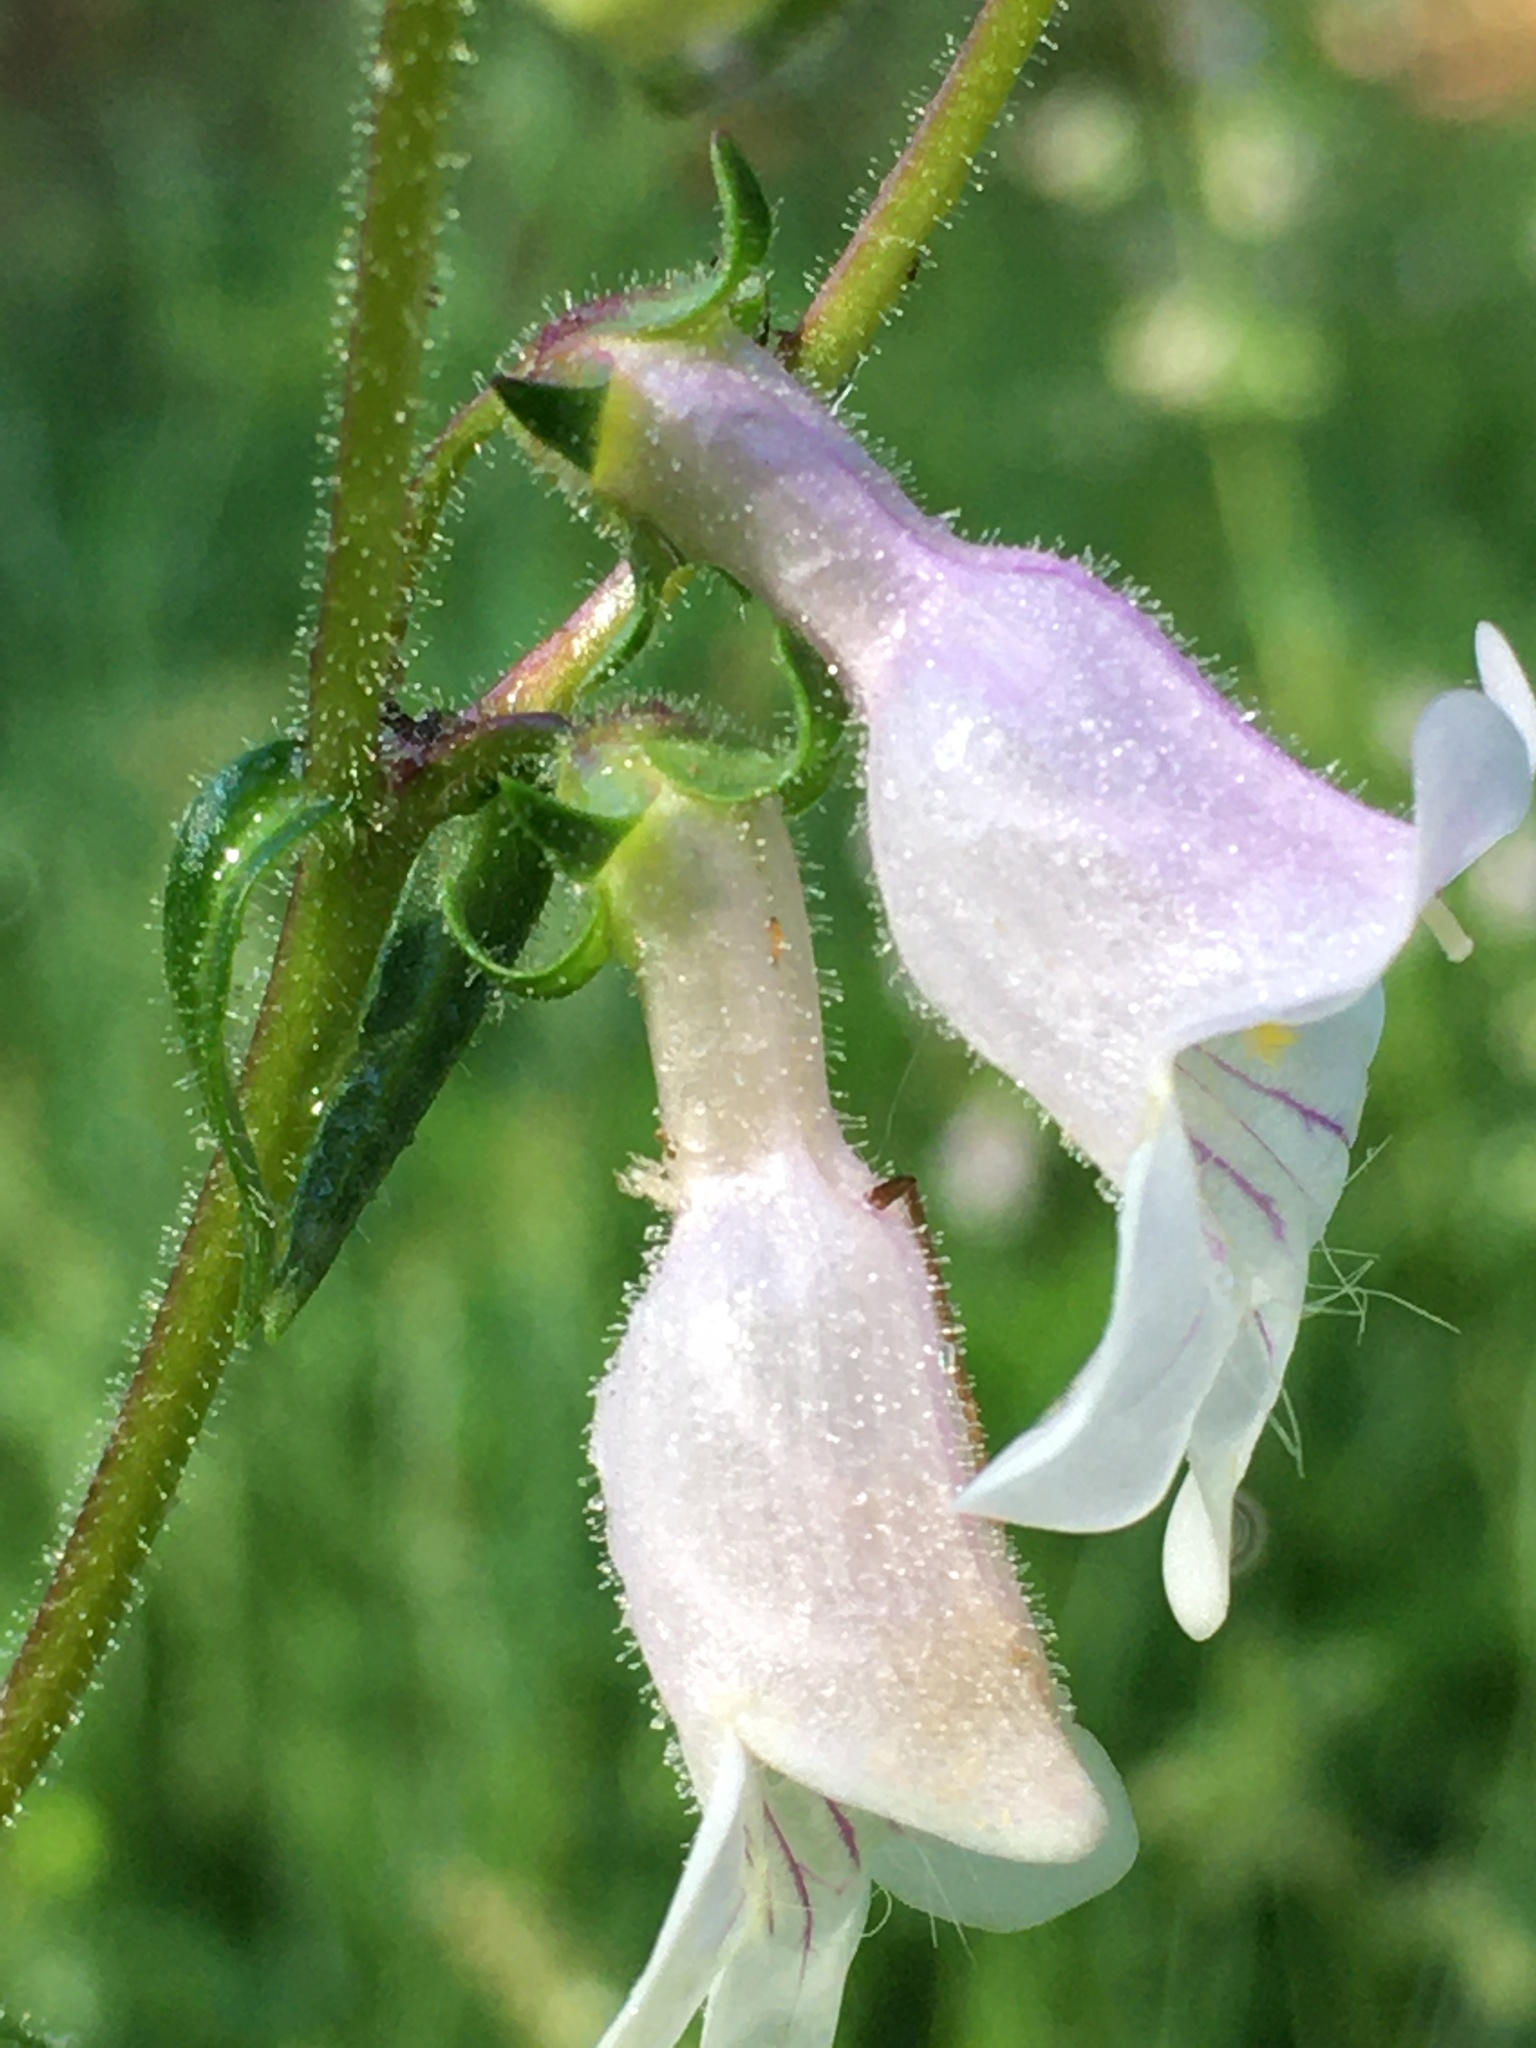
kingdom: Plantae
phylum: Tracheophyta
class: Magnoliopsida
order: Lamiales
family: Plantaginaceae
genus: Penstemon
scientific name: Penstemon laevigatus
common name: Eastern beardtongue
